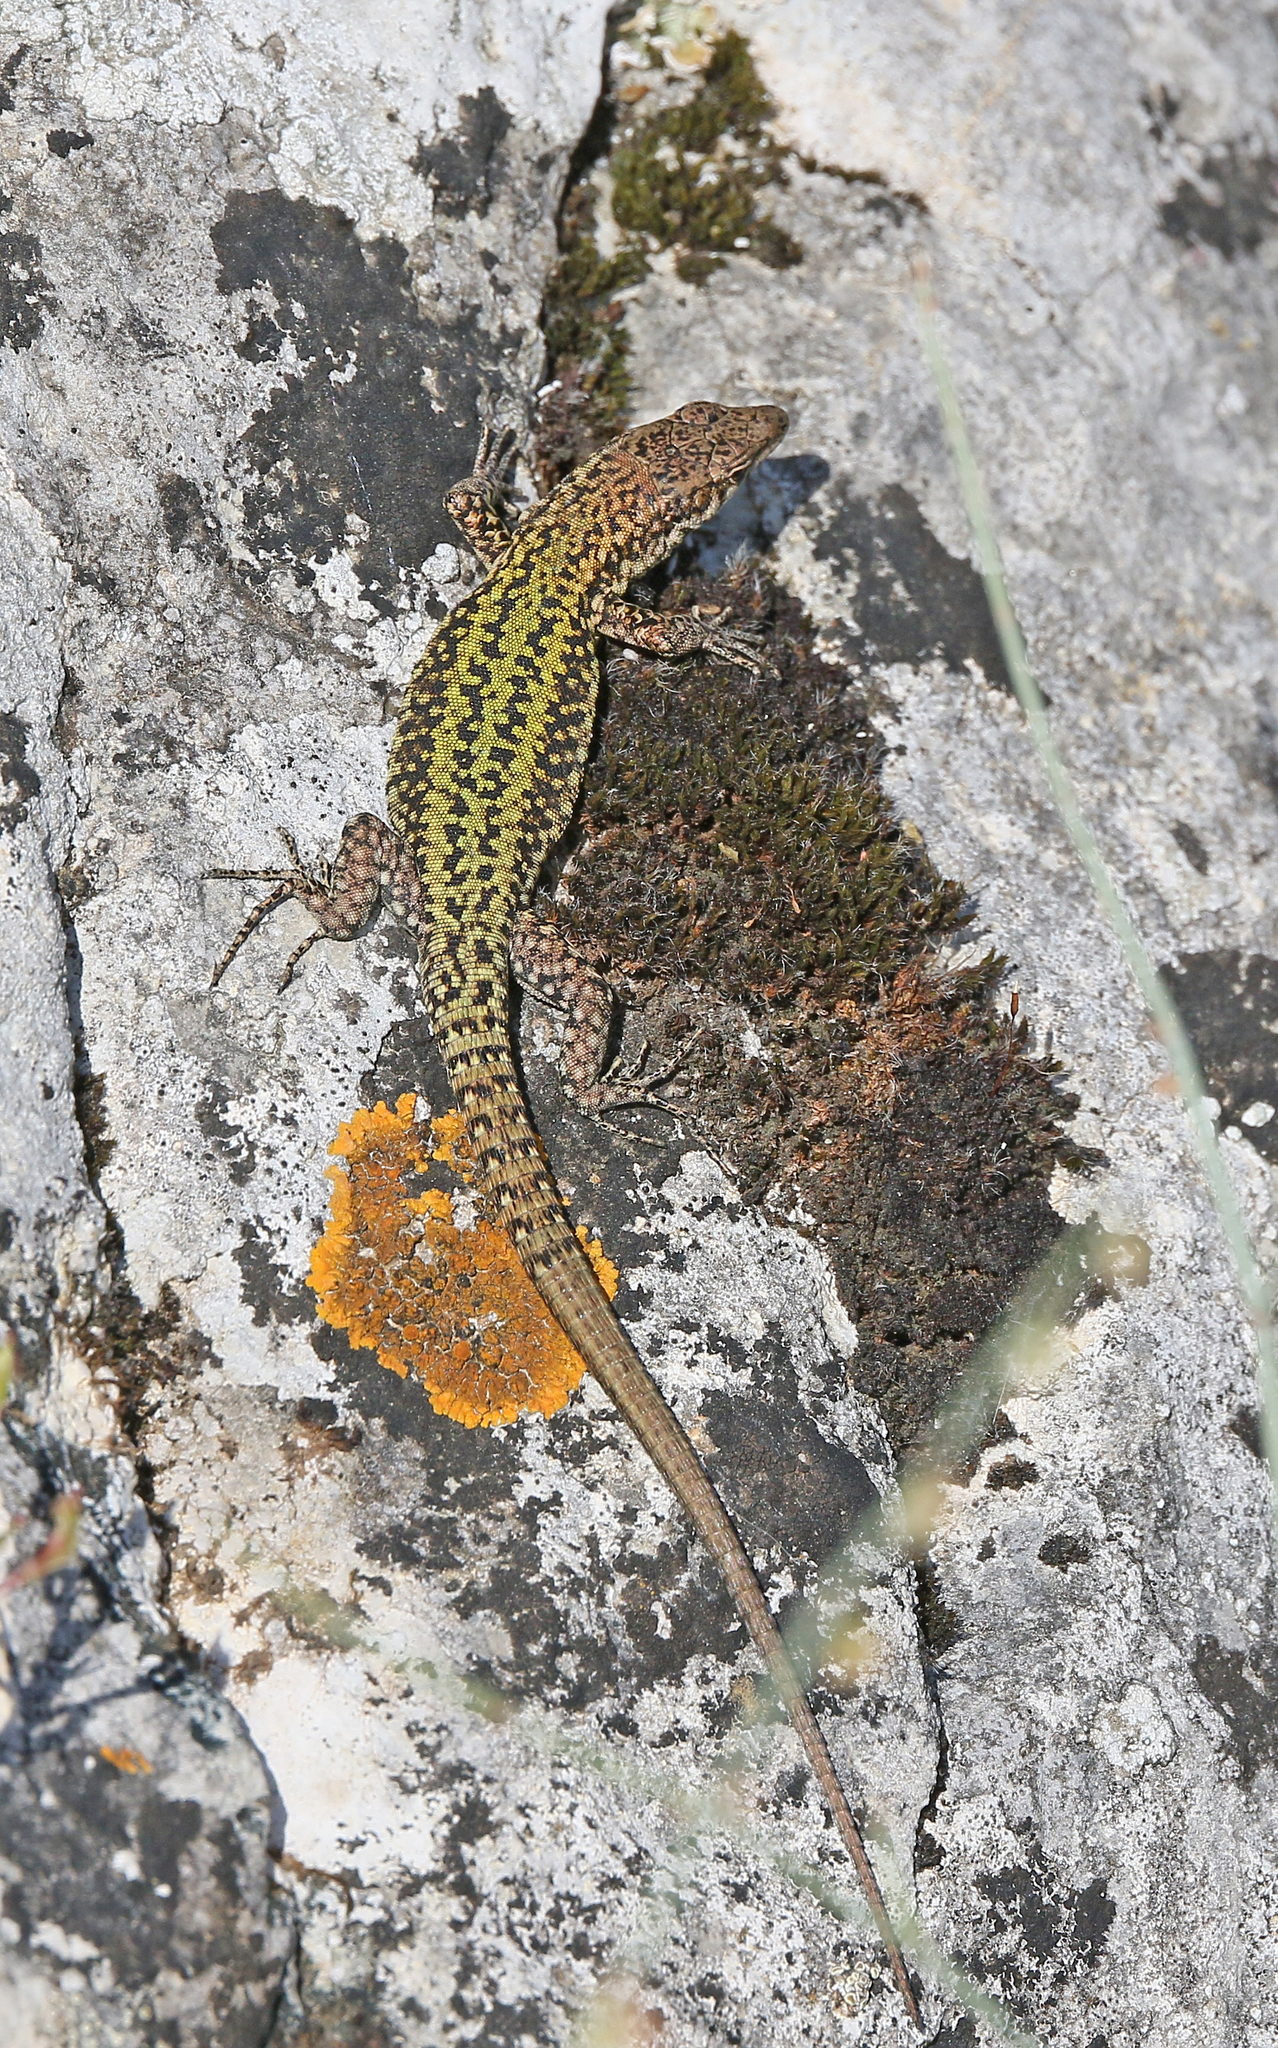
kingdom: Animalia
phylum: Chordata
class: Squamata
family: Lacertidae
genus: Podarcis
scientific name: Podarcis vaucheri
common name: Vaucher's wall lizard
